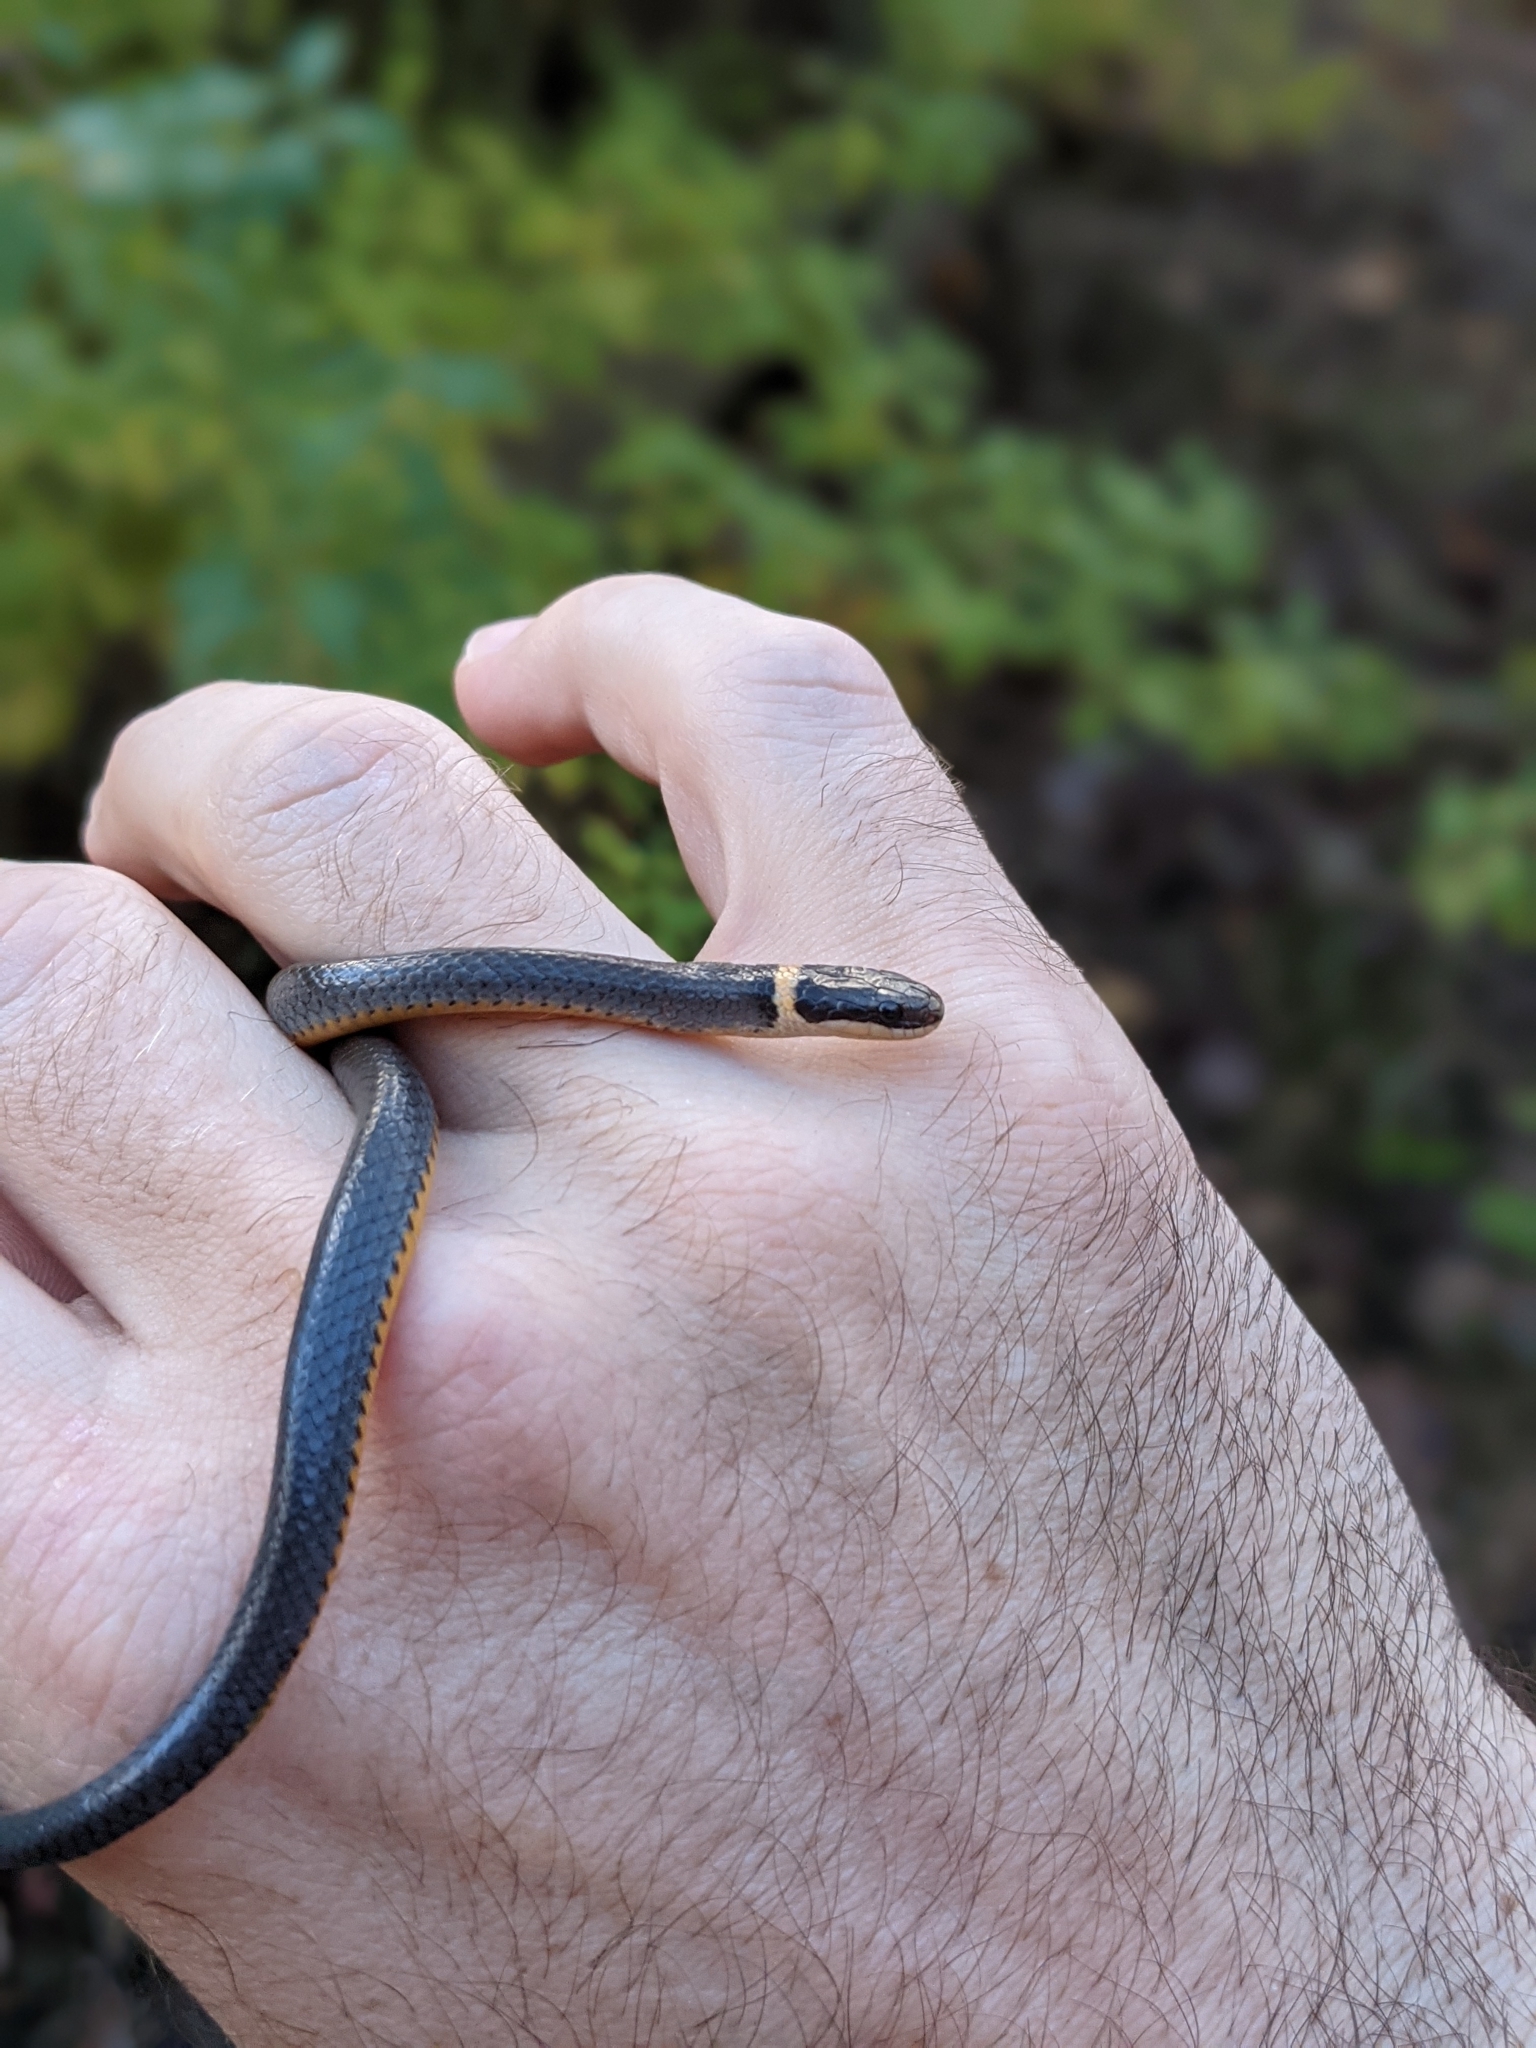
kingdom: Animalia
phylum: Chordata
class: Squamata
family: Colubridae
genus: Diadophis
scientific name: Diadophis punctatus
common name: Ringneck snake
